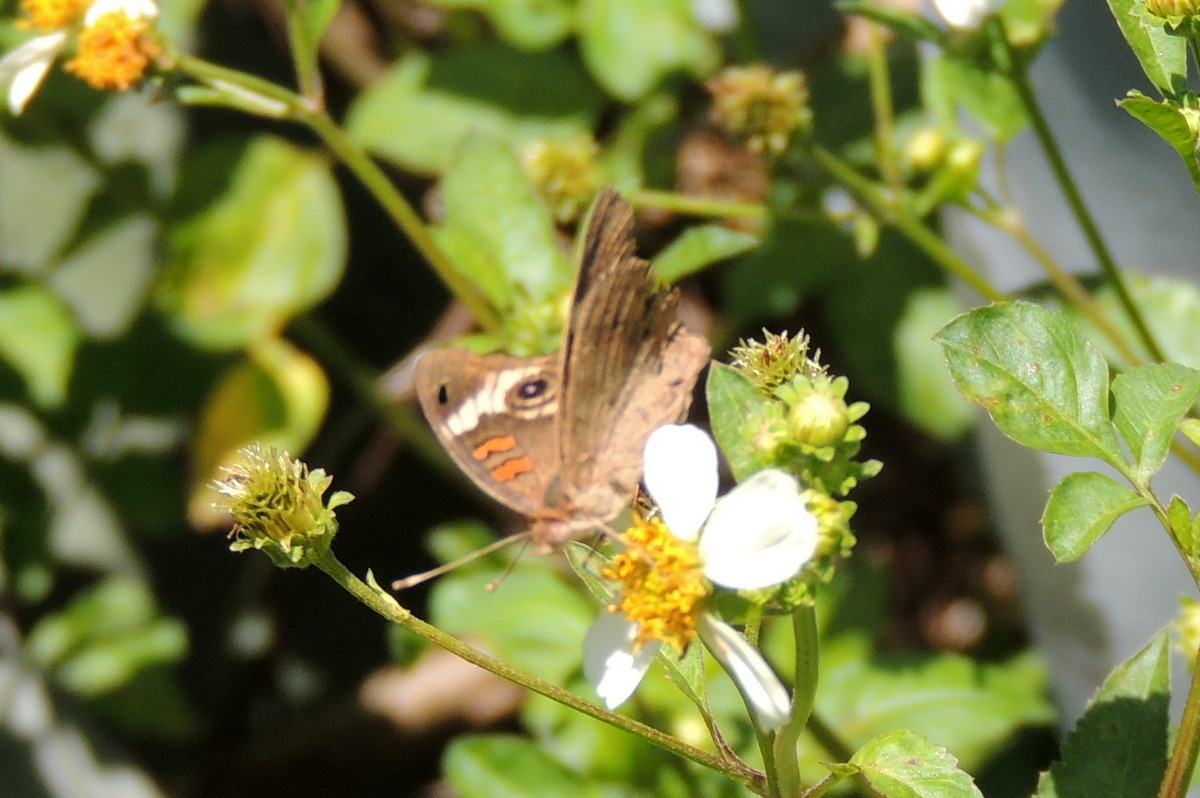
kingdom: Animalia
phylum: Arthropoda
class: Insecta
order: Lepidoptera
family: Nymphalidae
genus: Junonia
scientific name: Junonia coenia
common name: Common buckeye
